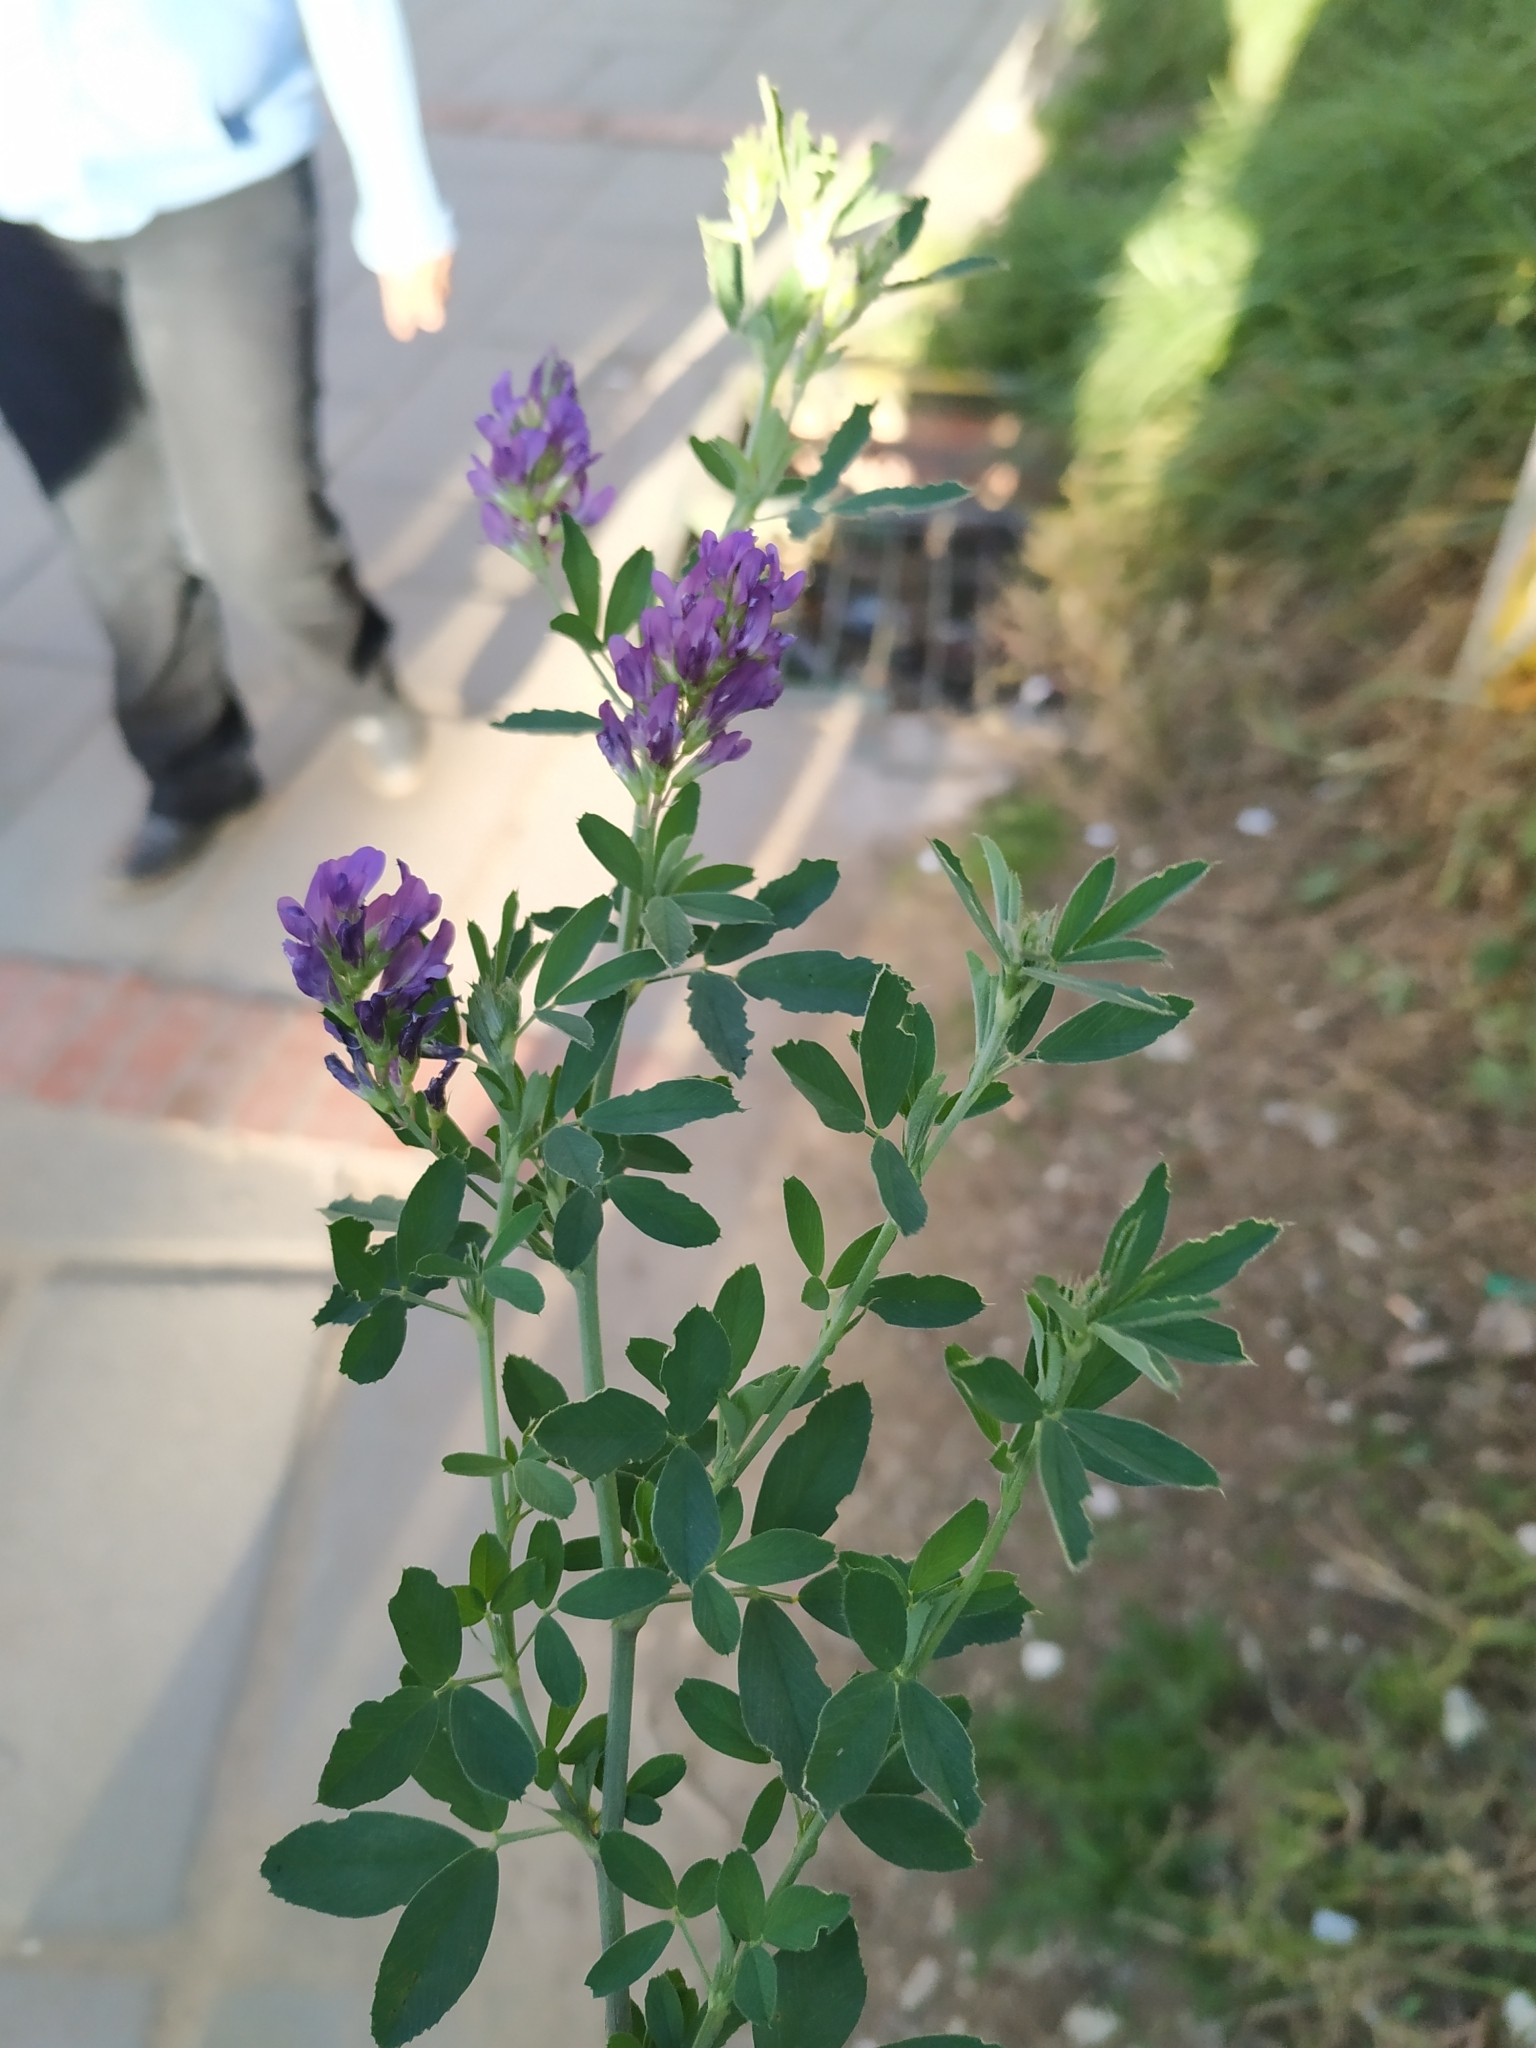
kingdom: Plantae
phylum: Tracheophyta
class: Magnoliopsida
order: Fabales
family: Fabaceae
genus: Medicago
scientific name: Medicago sativa
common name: Alfalfa
